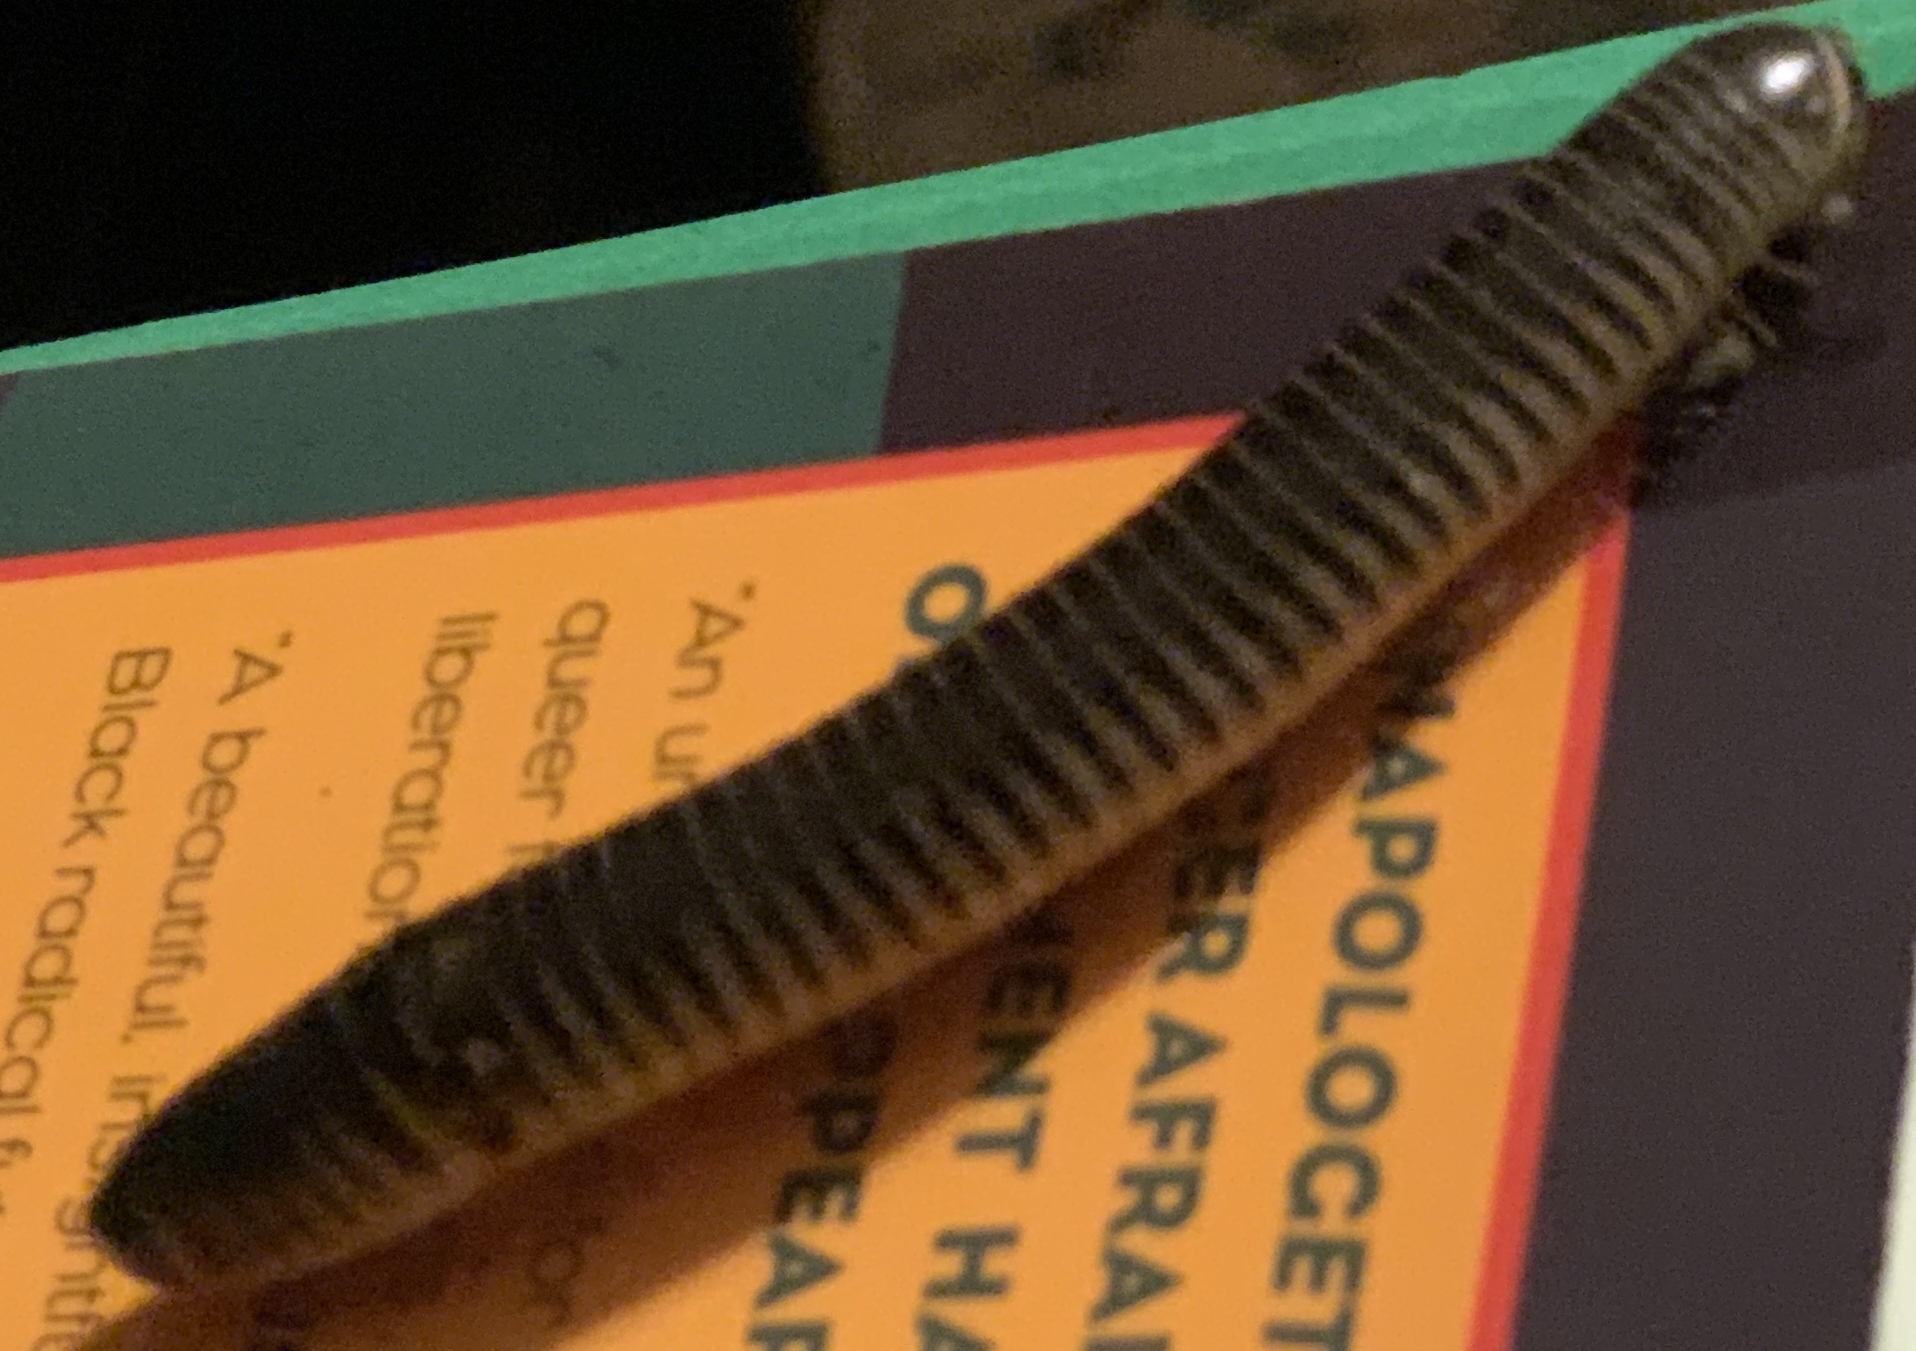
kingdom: Animalia
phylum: Arthropoda
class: Diplopoda
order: Spirobolida
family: Spirobolidae
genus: Chicobolus
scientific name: Chicobolus spinigerus
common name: Florida ivory millipede
